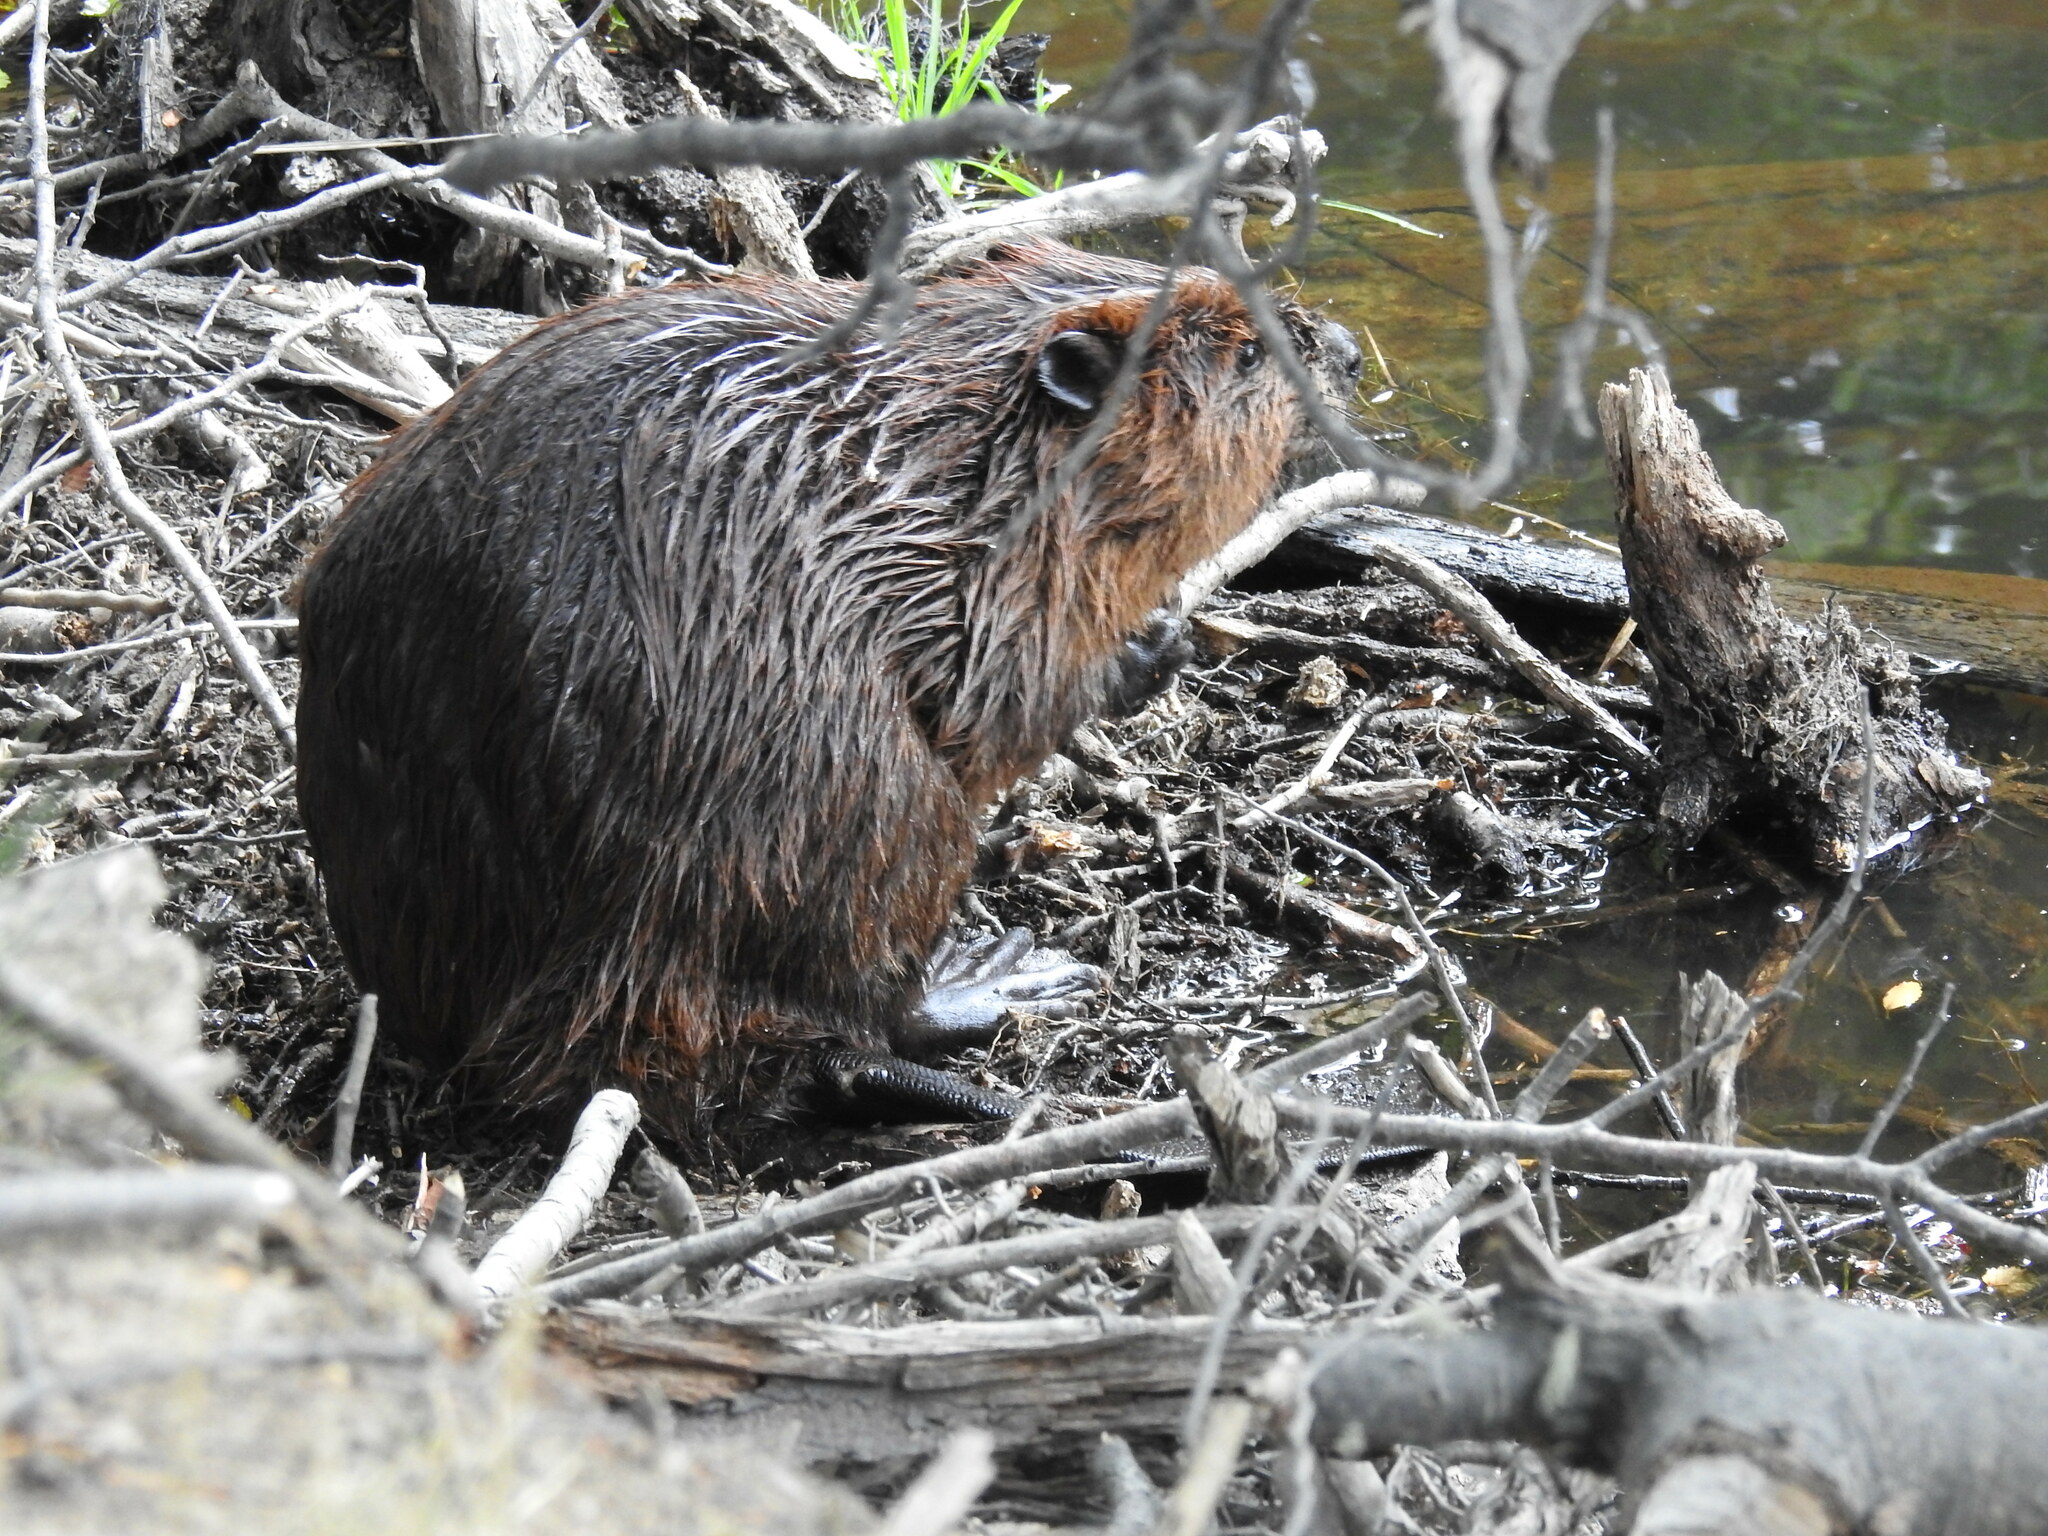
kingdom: Animalia
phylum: Chordata
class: Mammalia
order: Rodentia
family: Castoridae
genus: Castor
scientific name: Castor canadensis
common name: American beaver
